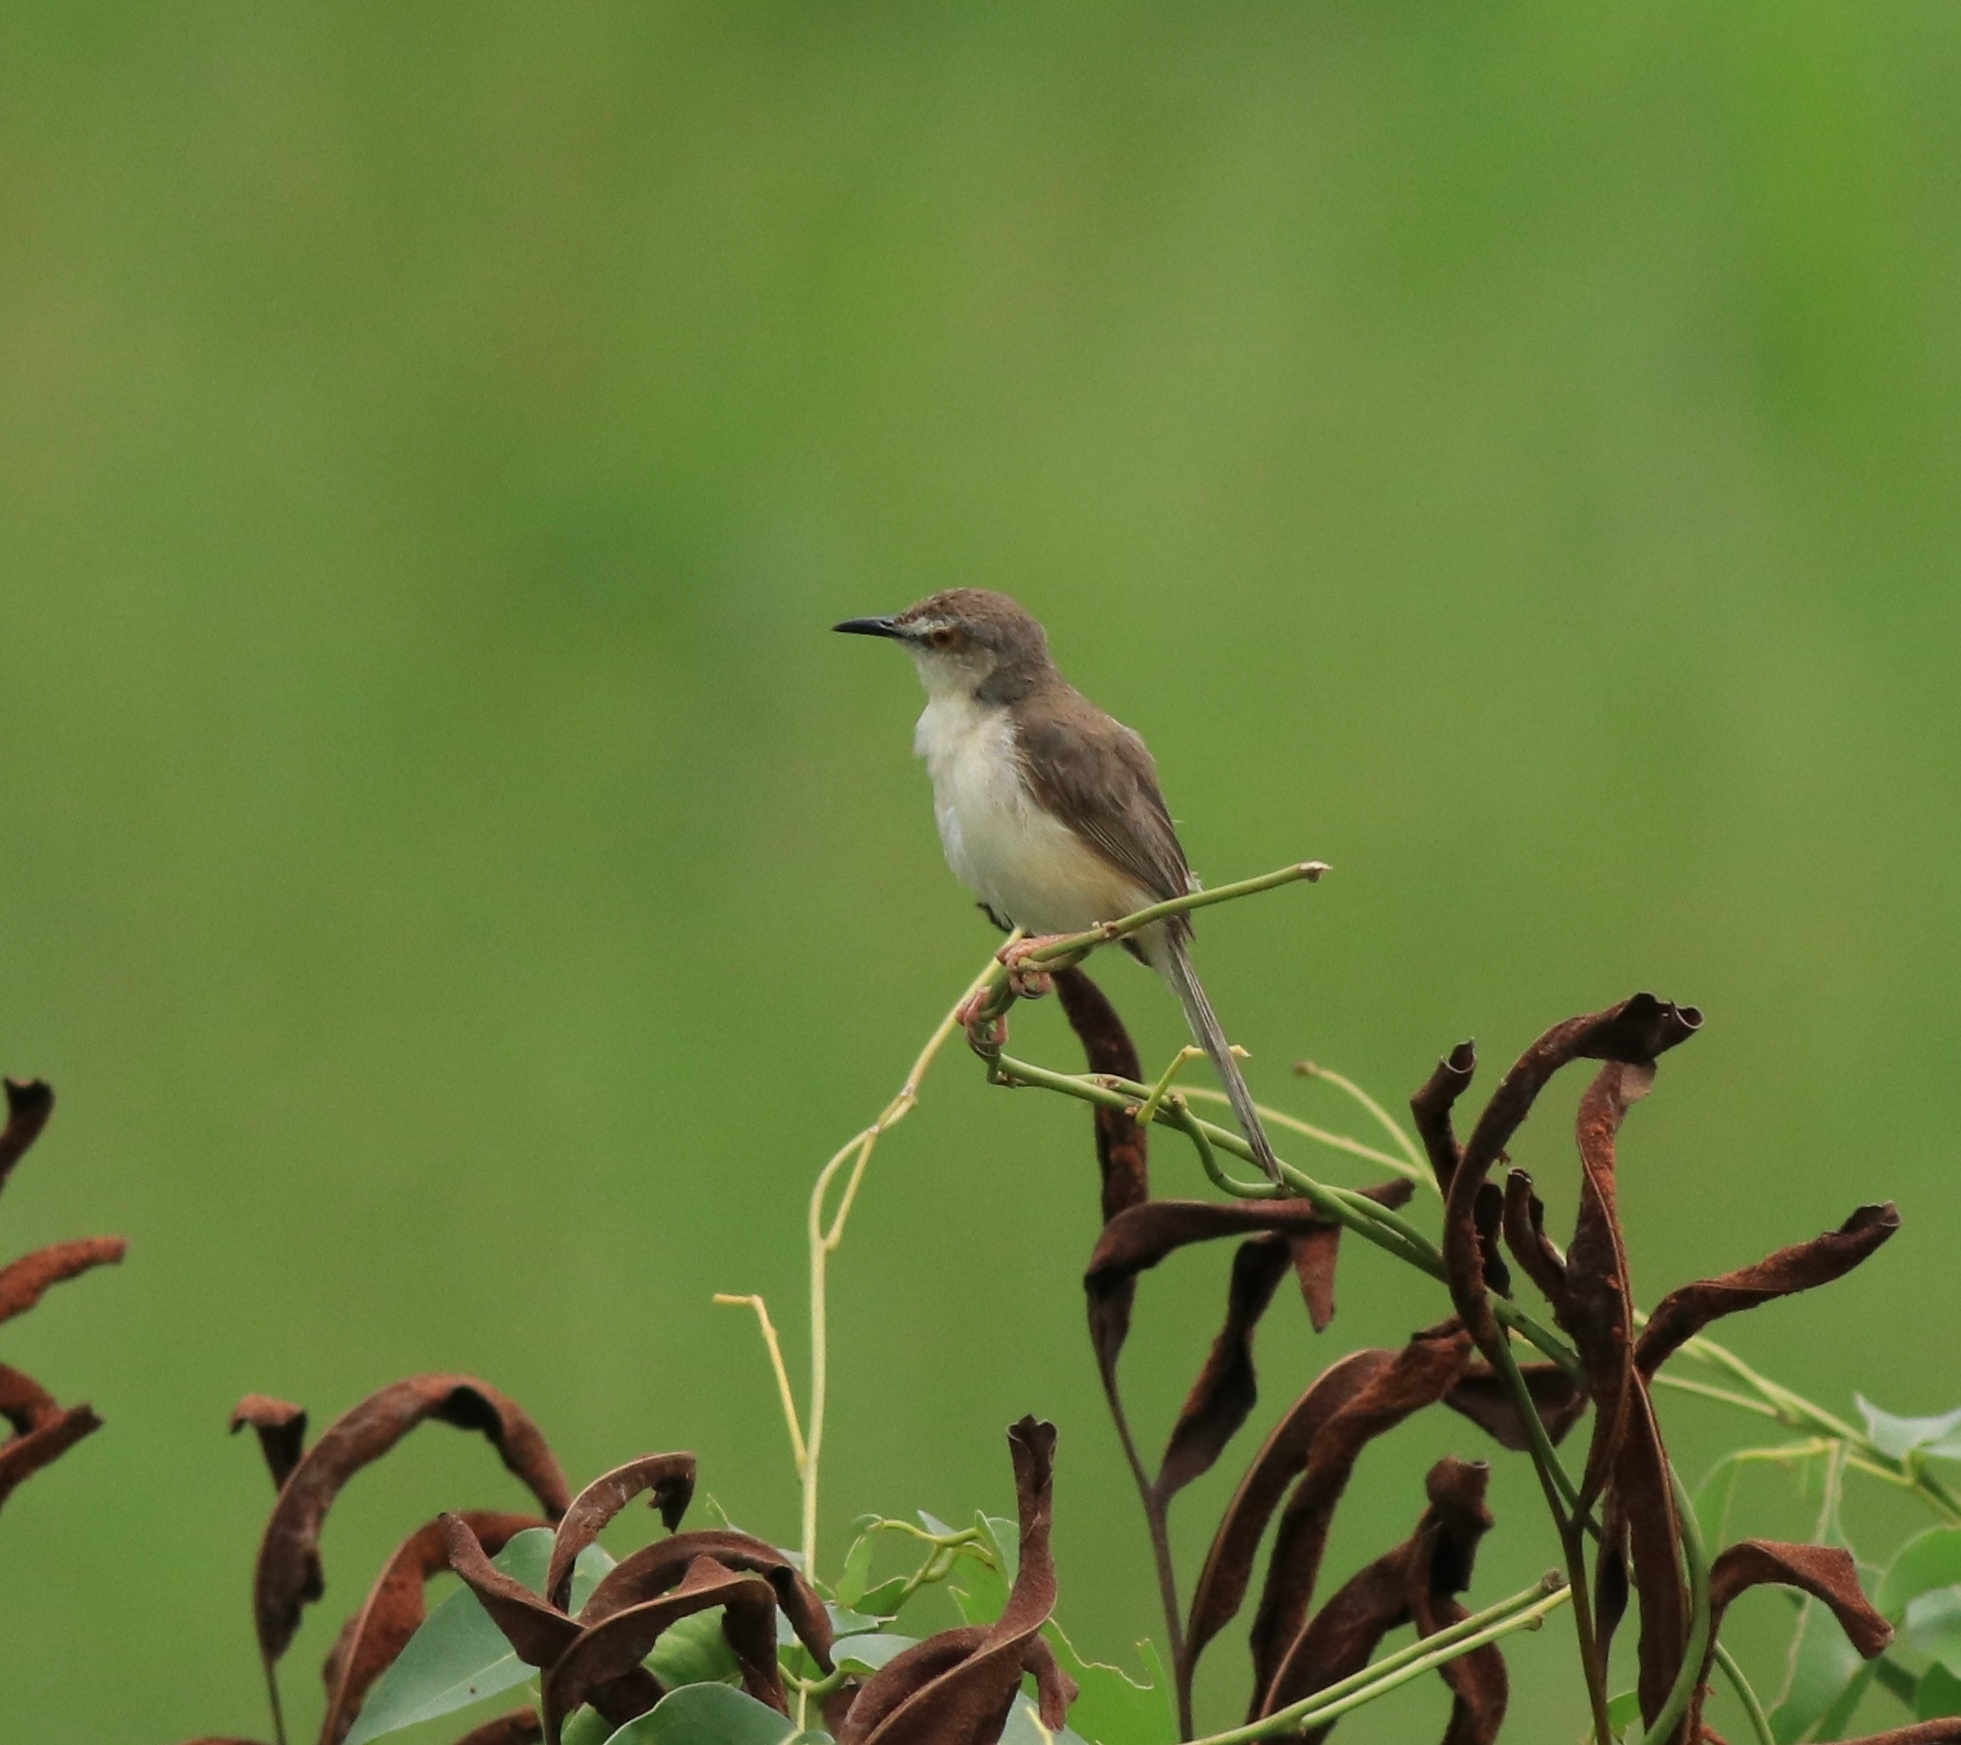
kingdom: Animalia
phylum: Chordata
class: Aves
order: Passeriformes
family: Cisticolidae
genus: Prinia
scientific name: Prinia inornata
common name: Plain prinia
